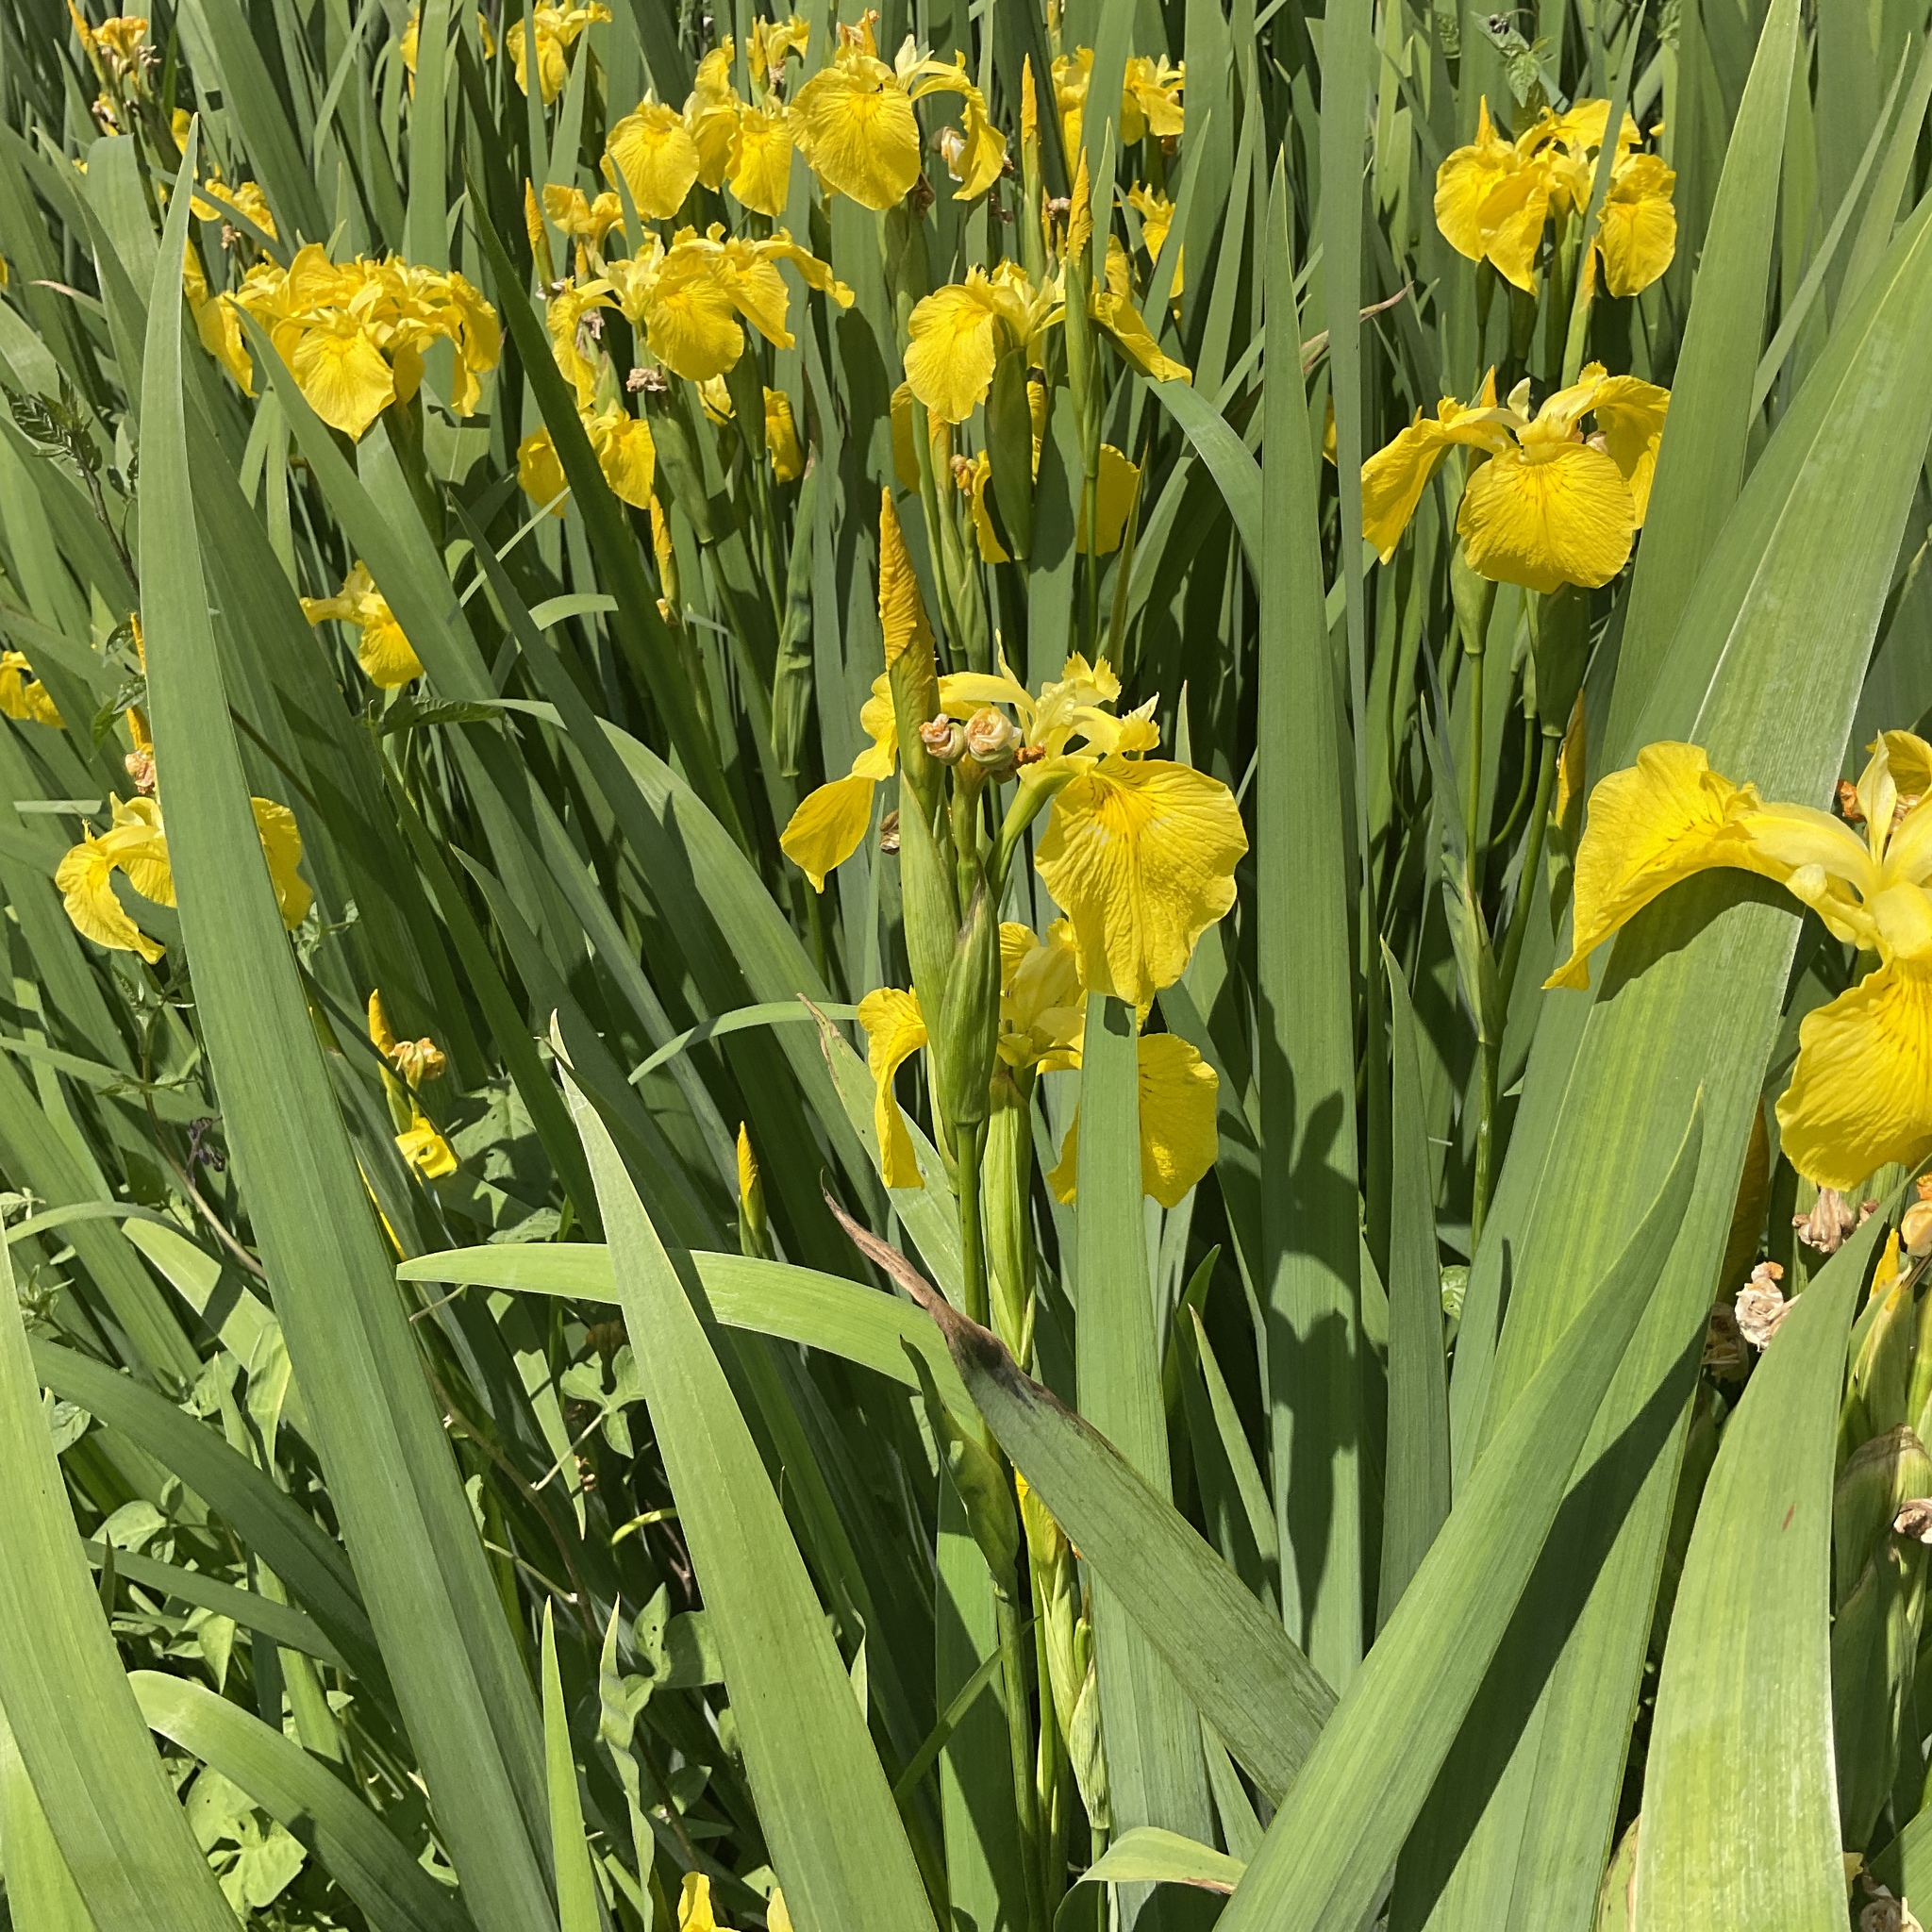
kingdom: Plantae
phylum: Tracheophyta
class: Liliopsida
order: Asparagales
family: Iridaceae
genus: Iris
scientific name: Iris pseudacorus
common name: Yellow flag
